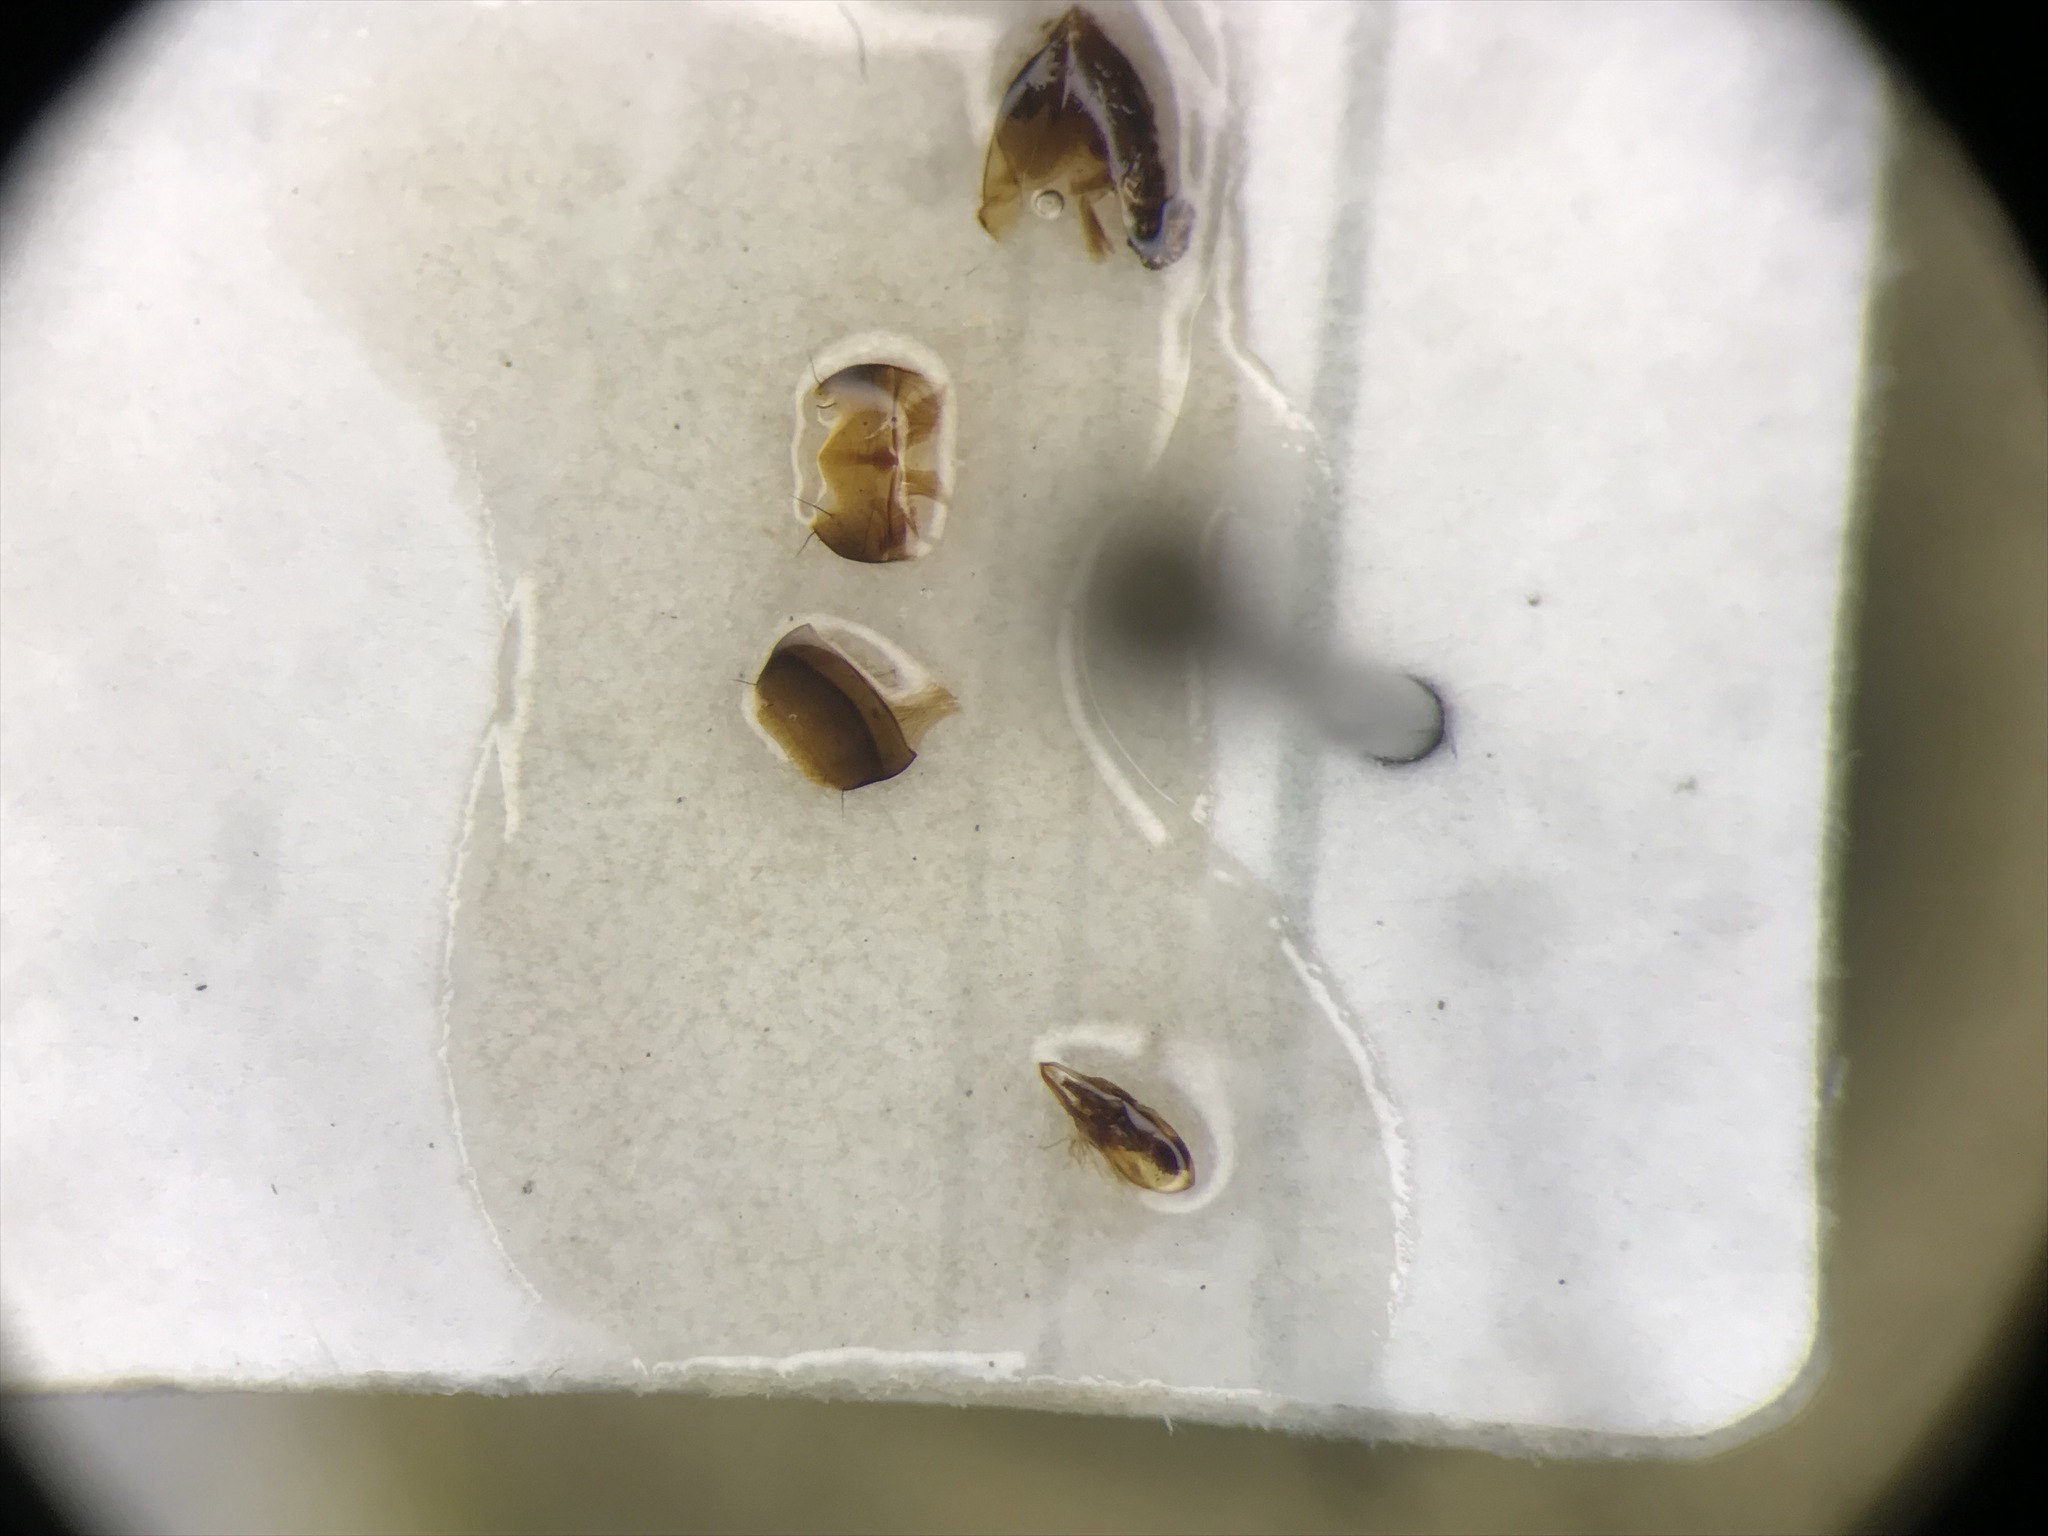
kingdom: Animalia
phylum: Arthropoda
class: Insecta
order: Coleoptera
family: Staphylinidae
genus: Anotylus
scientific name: Anotylus rugosus
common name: Rove beetle
